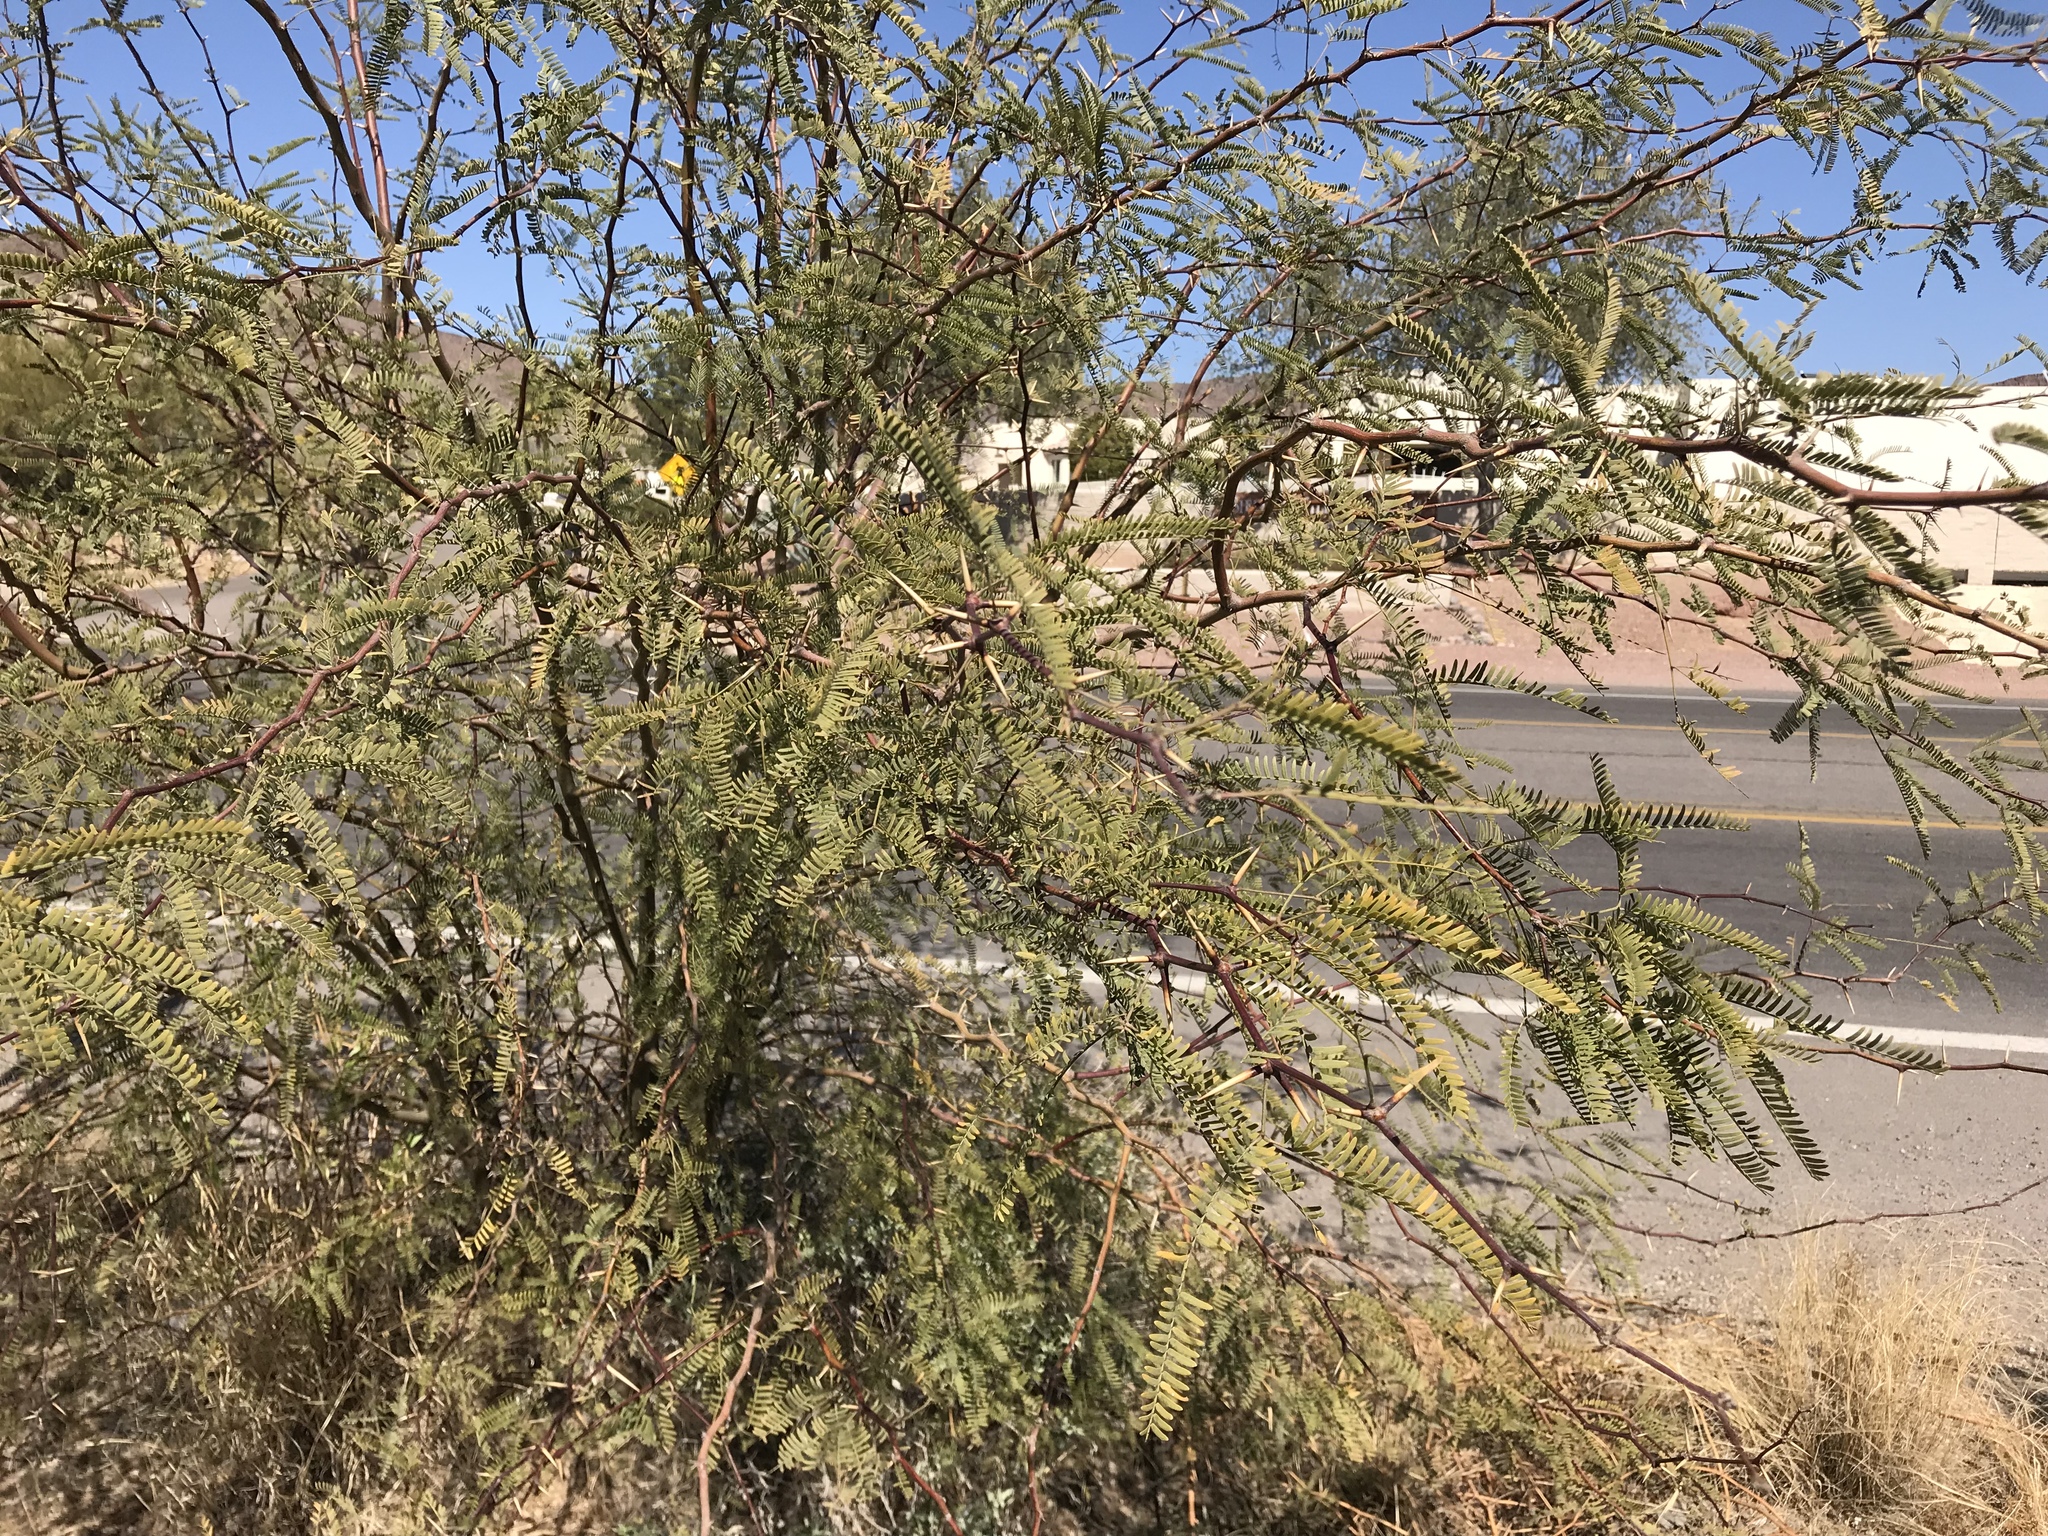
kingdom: Plantae
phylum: Tracheophyta
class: Magnoliopsida
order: Fabales
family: Fabaceae
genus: Prosopis
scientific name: Prosopis glandulosa
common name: Honey mesquite
